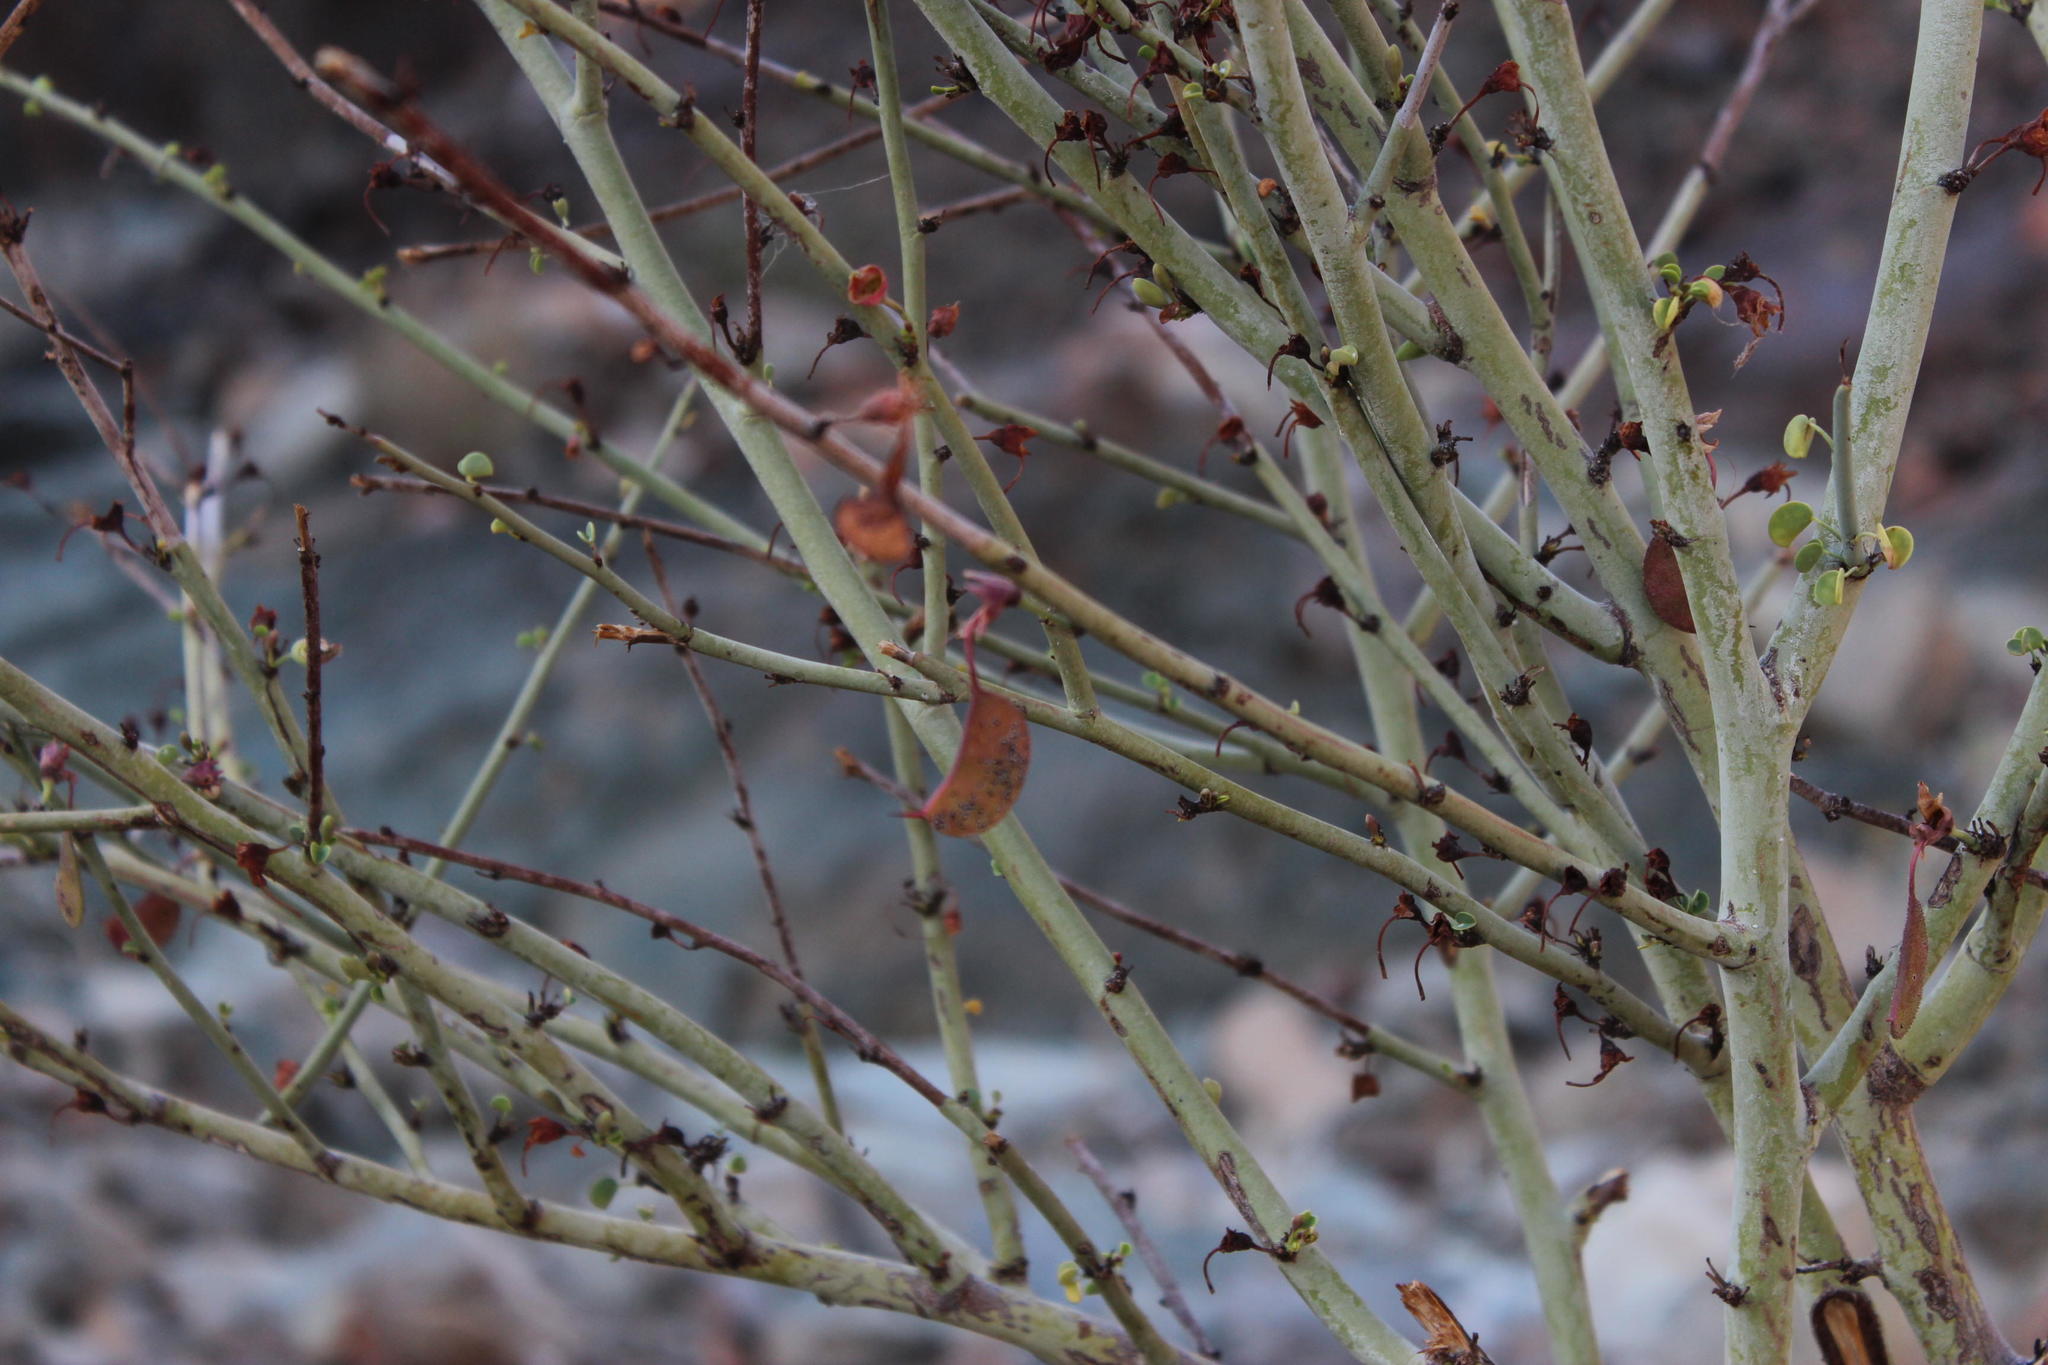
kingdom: Plantae
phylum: Tracheophyta
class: Magnoliopsida
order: Fabales
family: Fabaceae
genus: Adenolobus
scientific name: Adenolobus garipensis
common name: Butterfly-leaf
